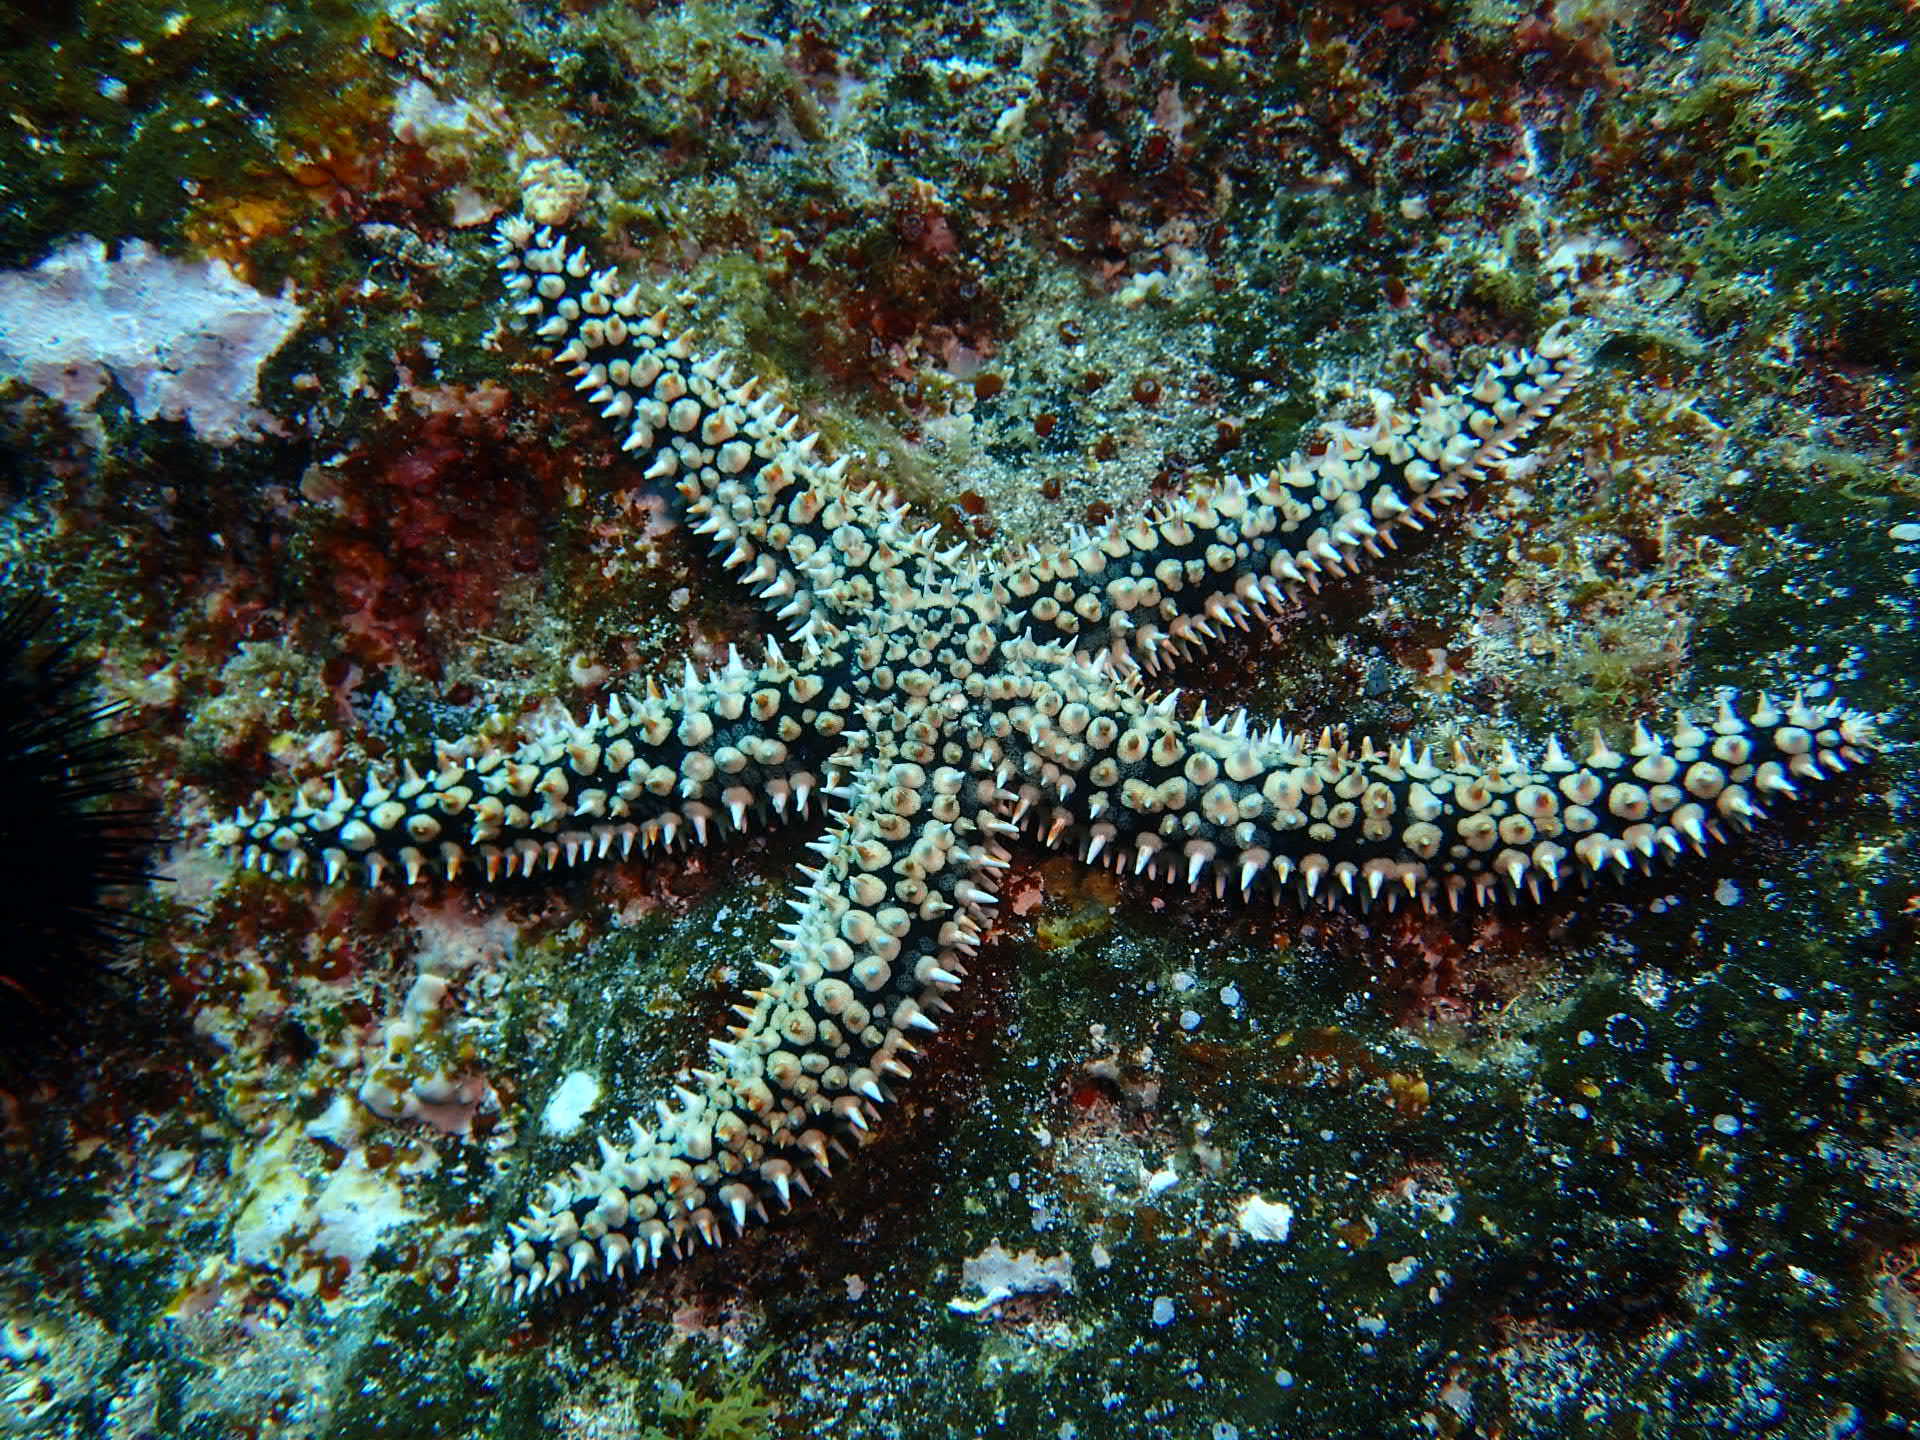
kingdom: Animalia
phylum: Echinodermata
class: Asteroidea
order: Forcipulatida
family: Asteriidae
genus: Marthasterias
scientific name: Marthasterias glacialis
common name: Spiny starfish
